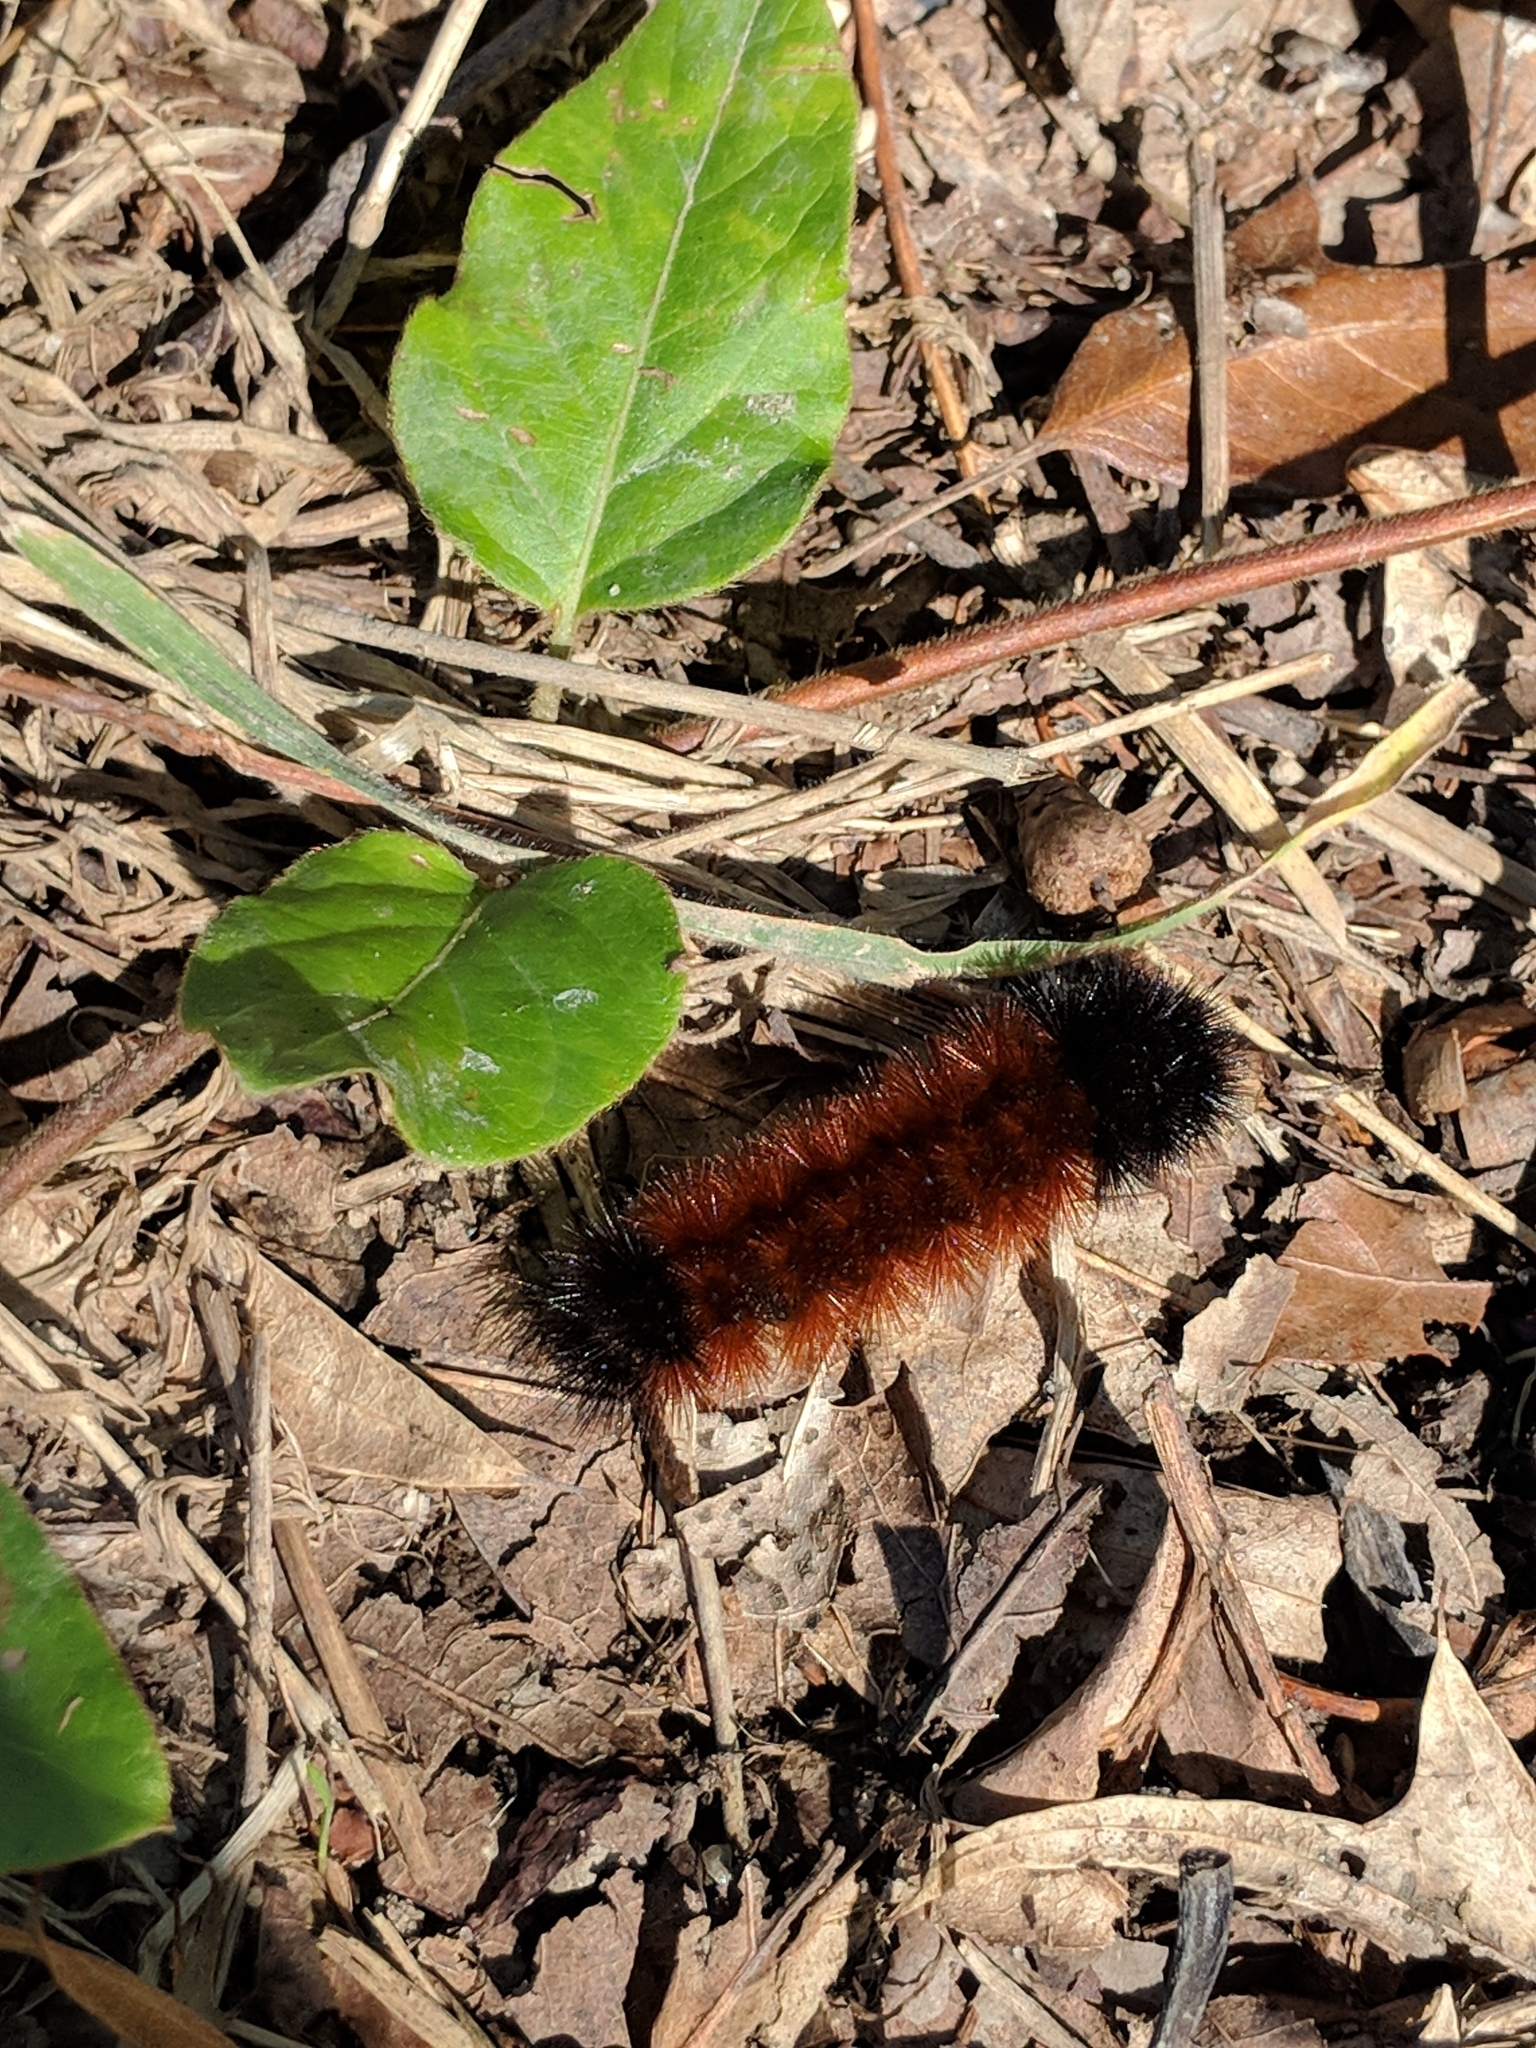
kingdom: Animalia
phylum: Arthropoda
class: Insecta
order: Lepidoptera
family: Erebidae
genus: Pyrrharctia
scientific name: Pyrrharctia isabella
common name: Isabella tiger moth
